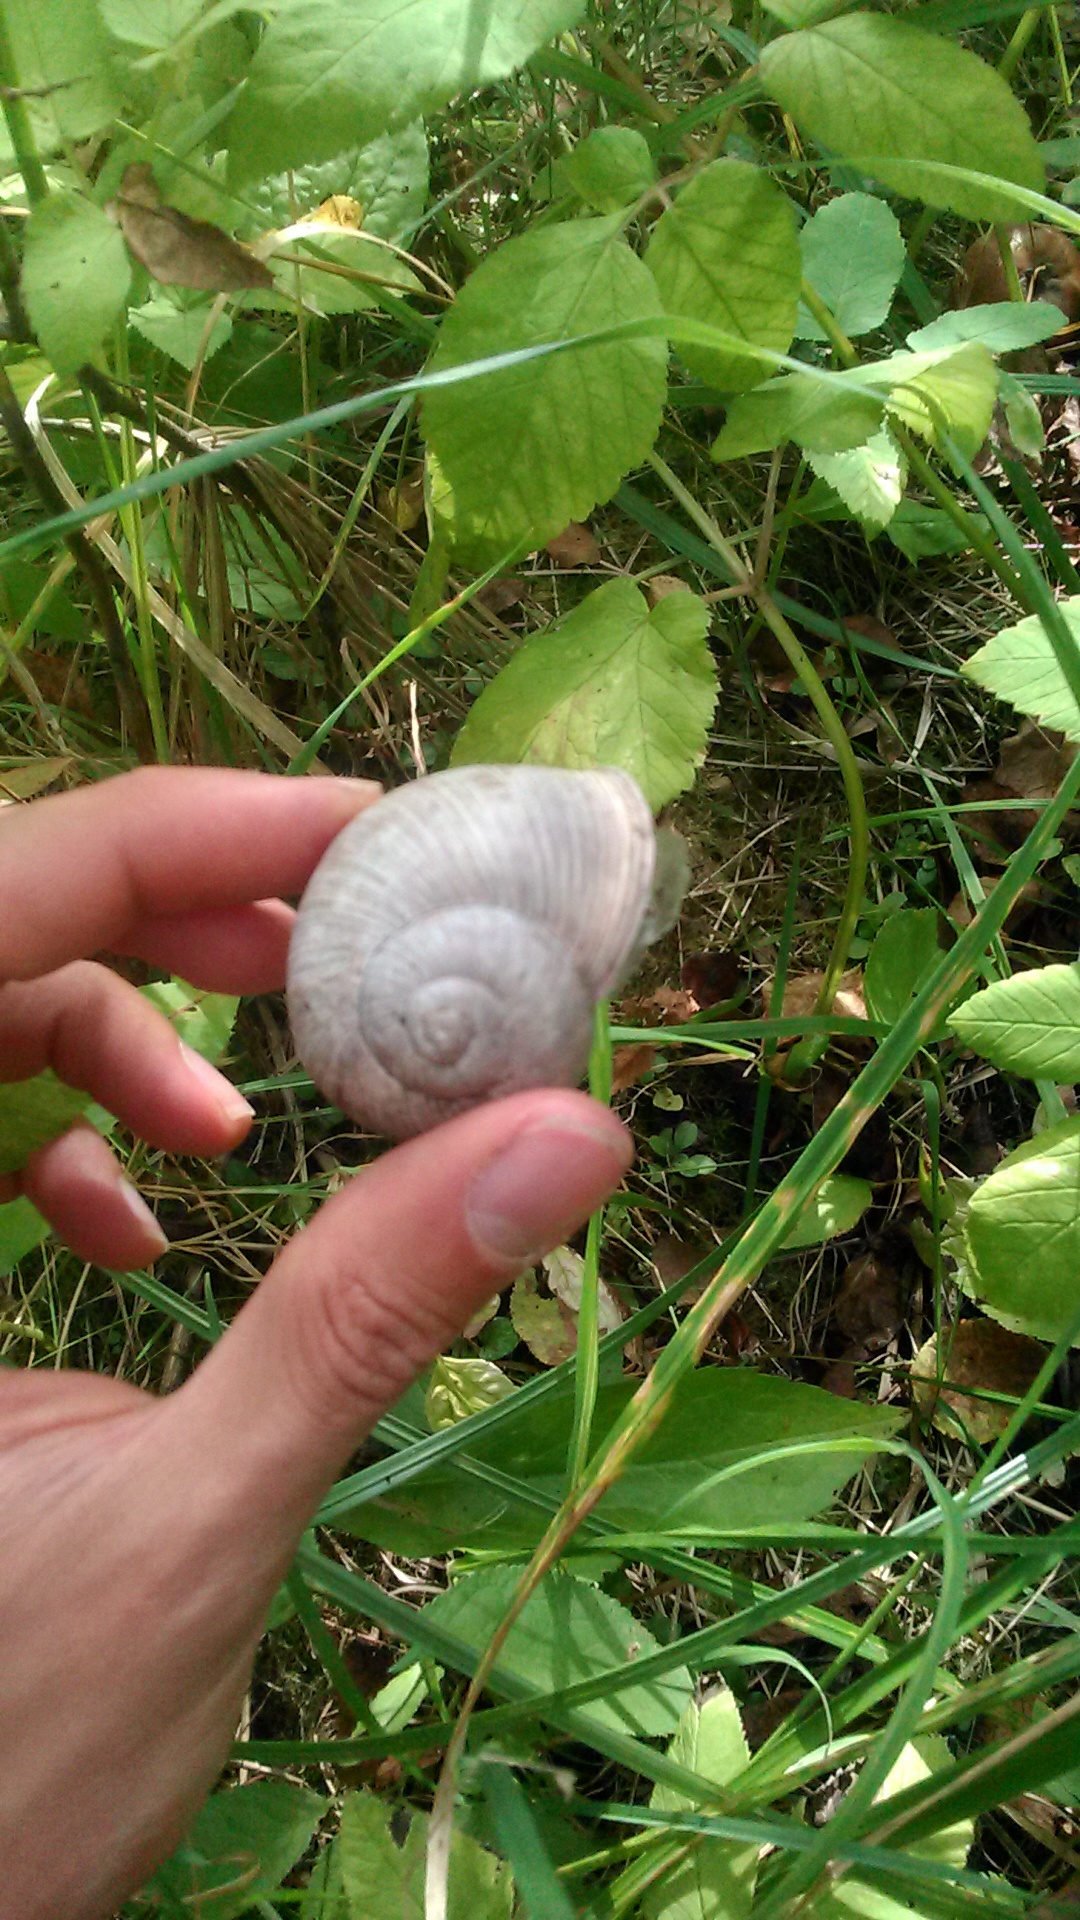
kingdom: Animalia
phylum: Mollusca
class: Gastropoda
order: Stylommatophora
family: Helicidae
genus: Helix
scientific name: Helix pomatia
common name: Roman snail
